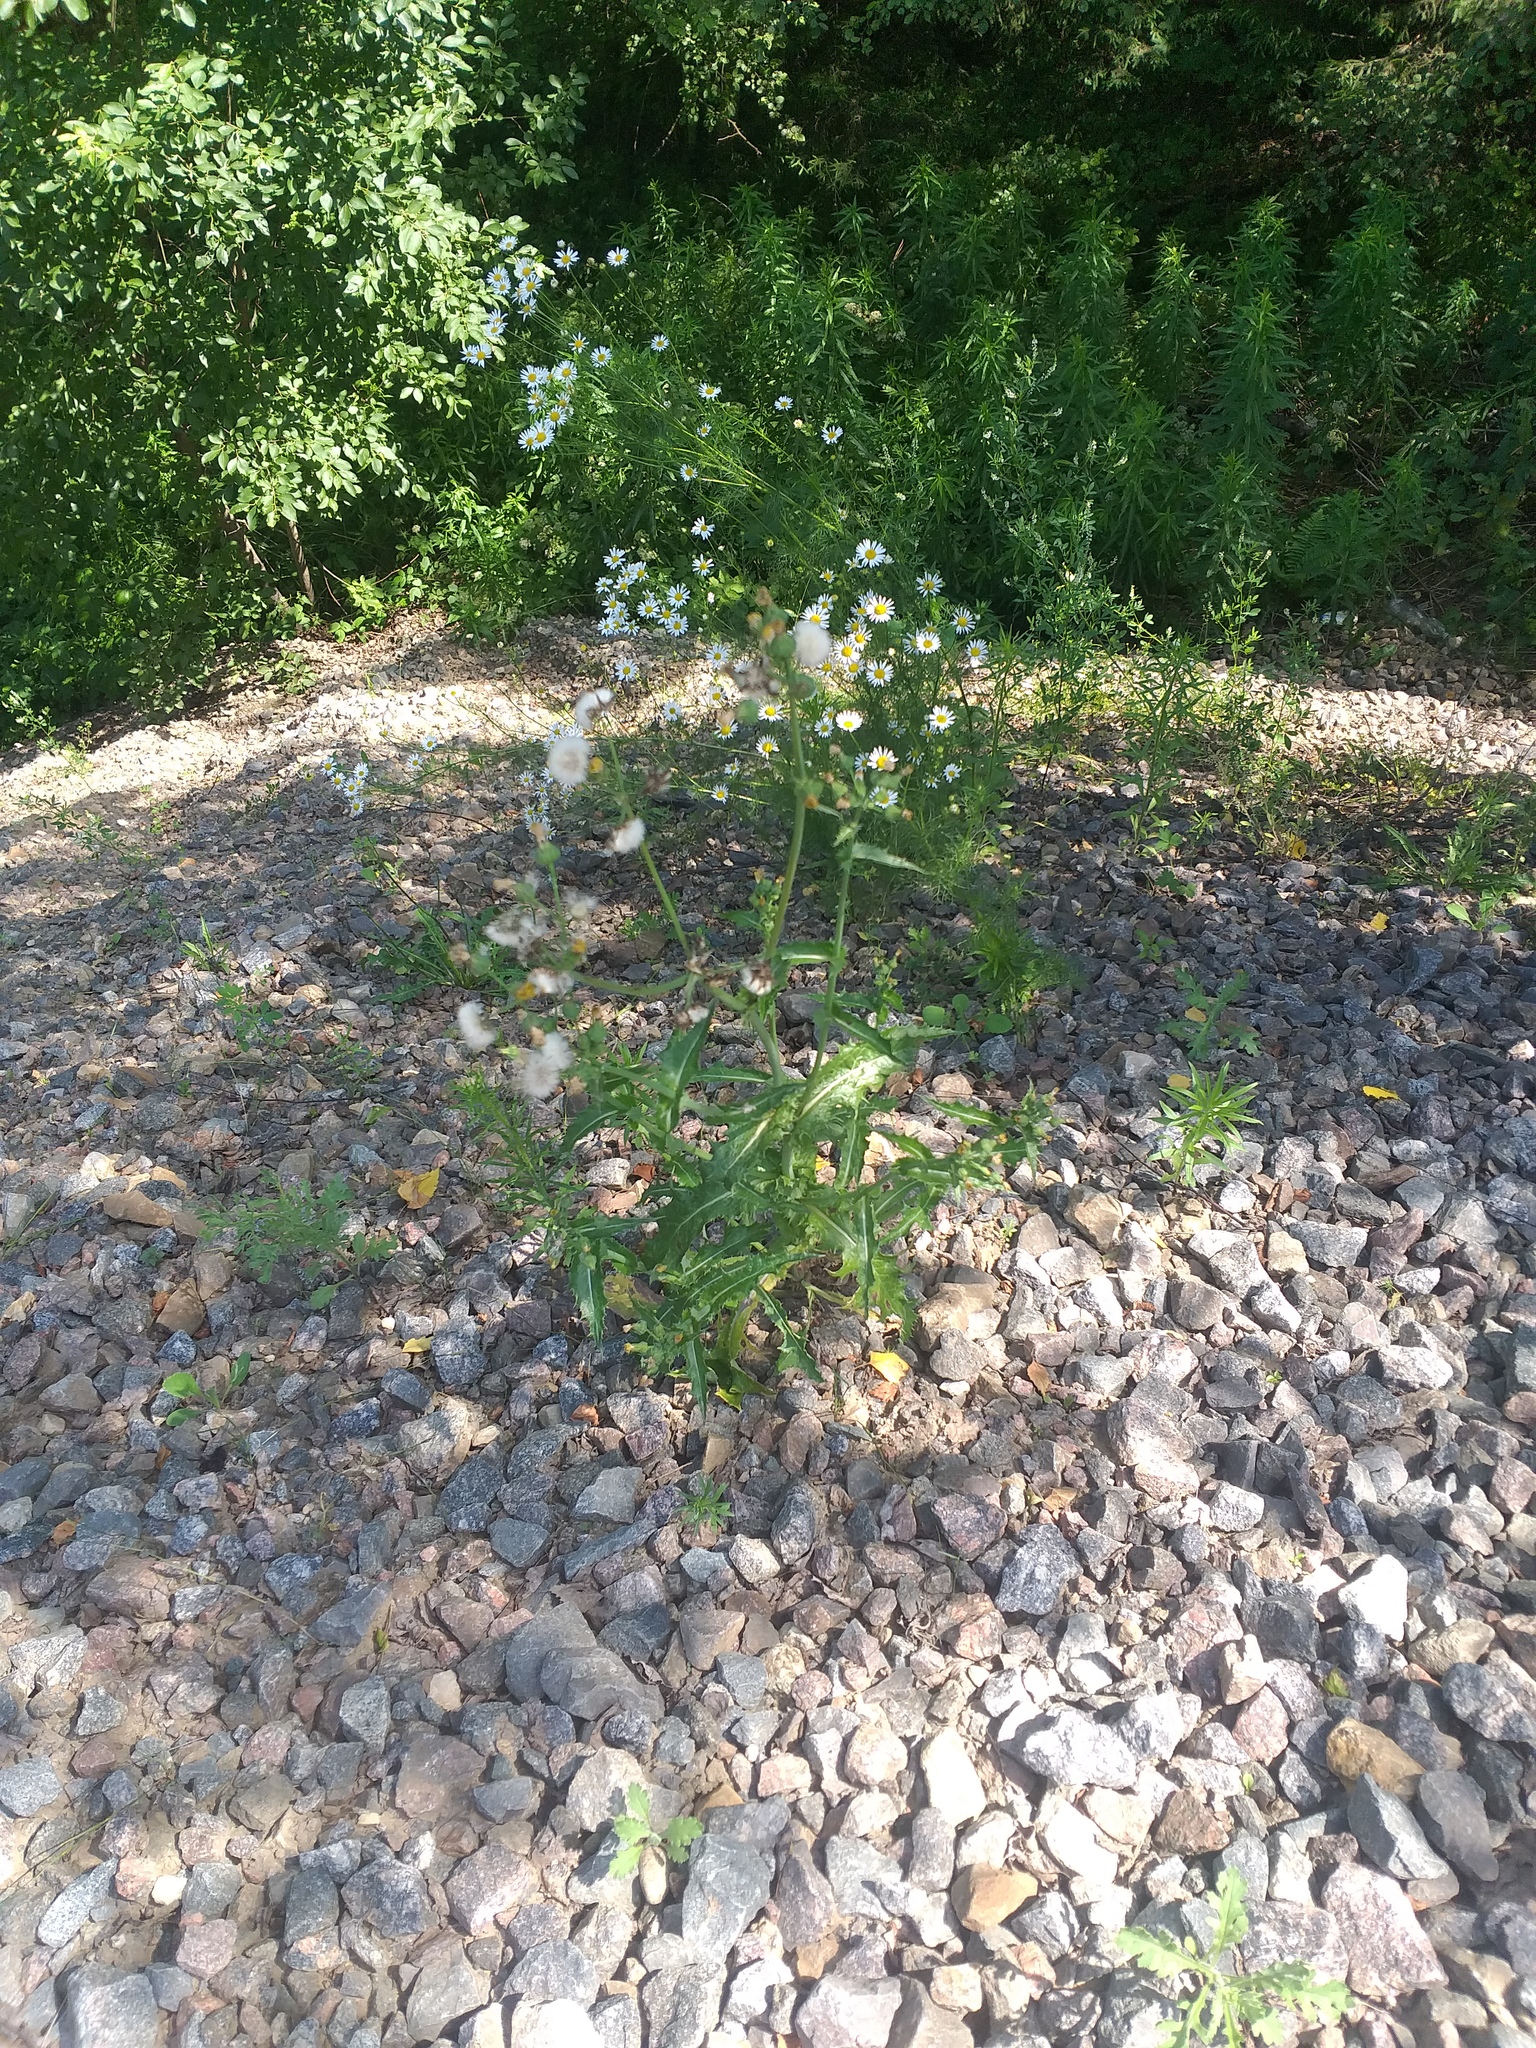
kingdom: Plantae
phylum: Tracheophyta
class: Magnoliopsida
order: Asterales
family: Asteraceae
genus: Sonchus
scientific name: Sonchus asper
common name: Prickly sow-thistle
